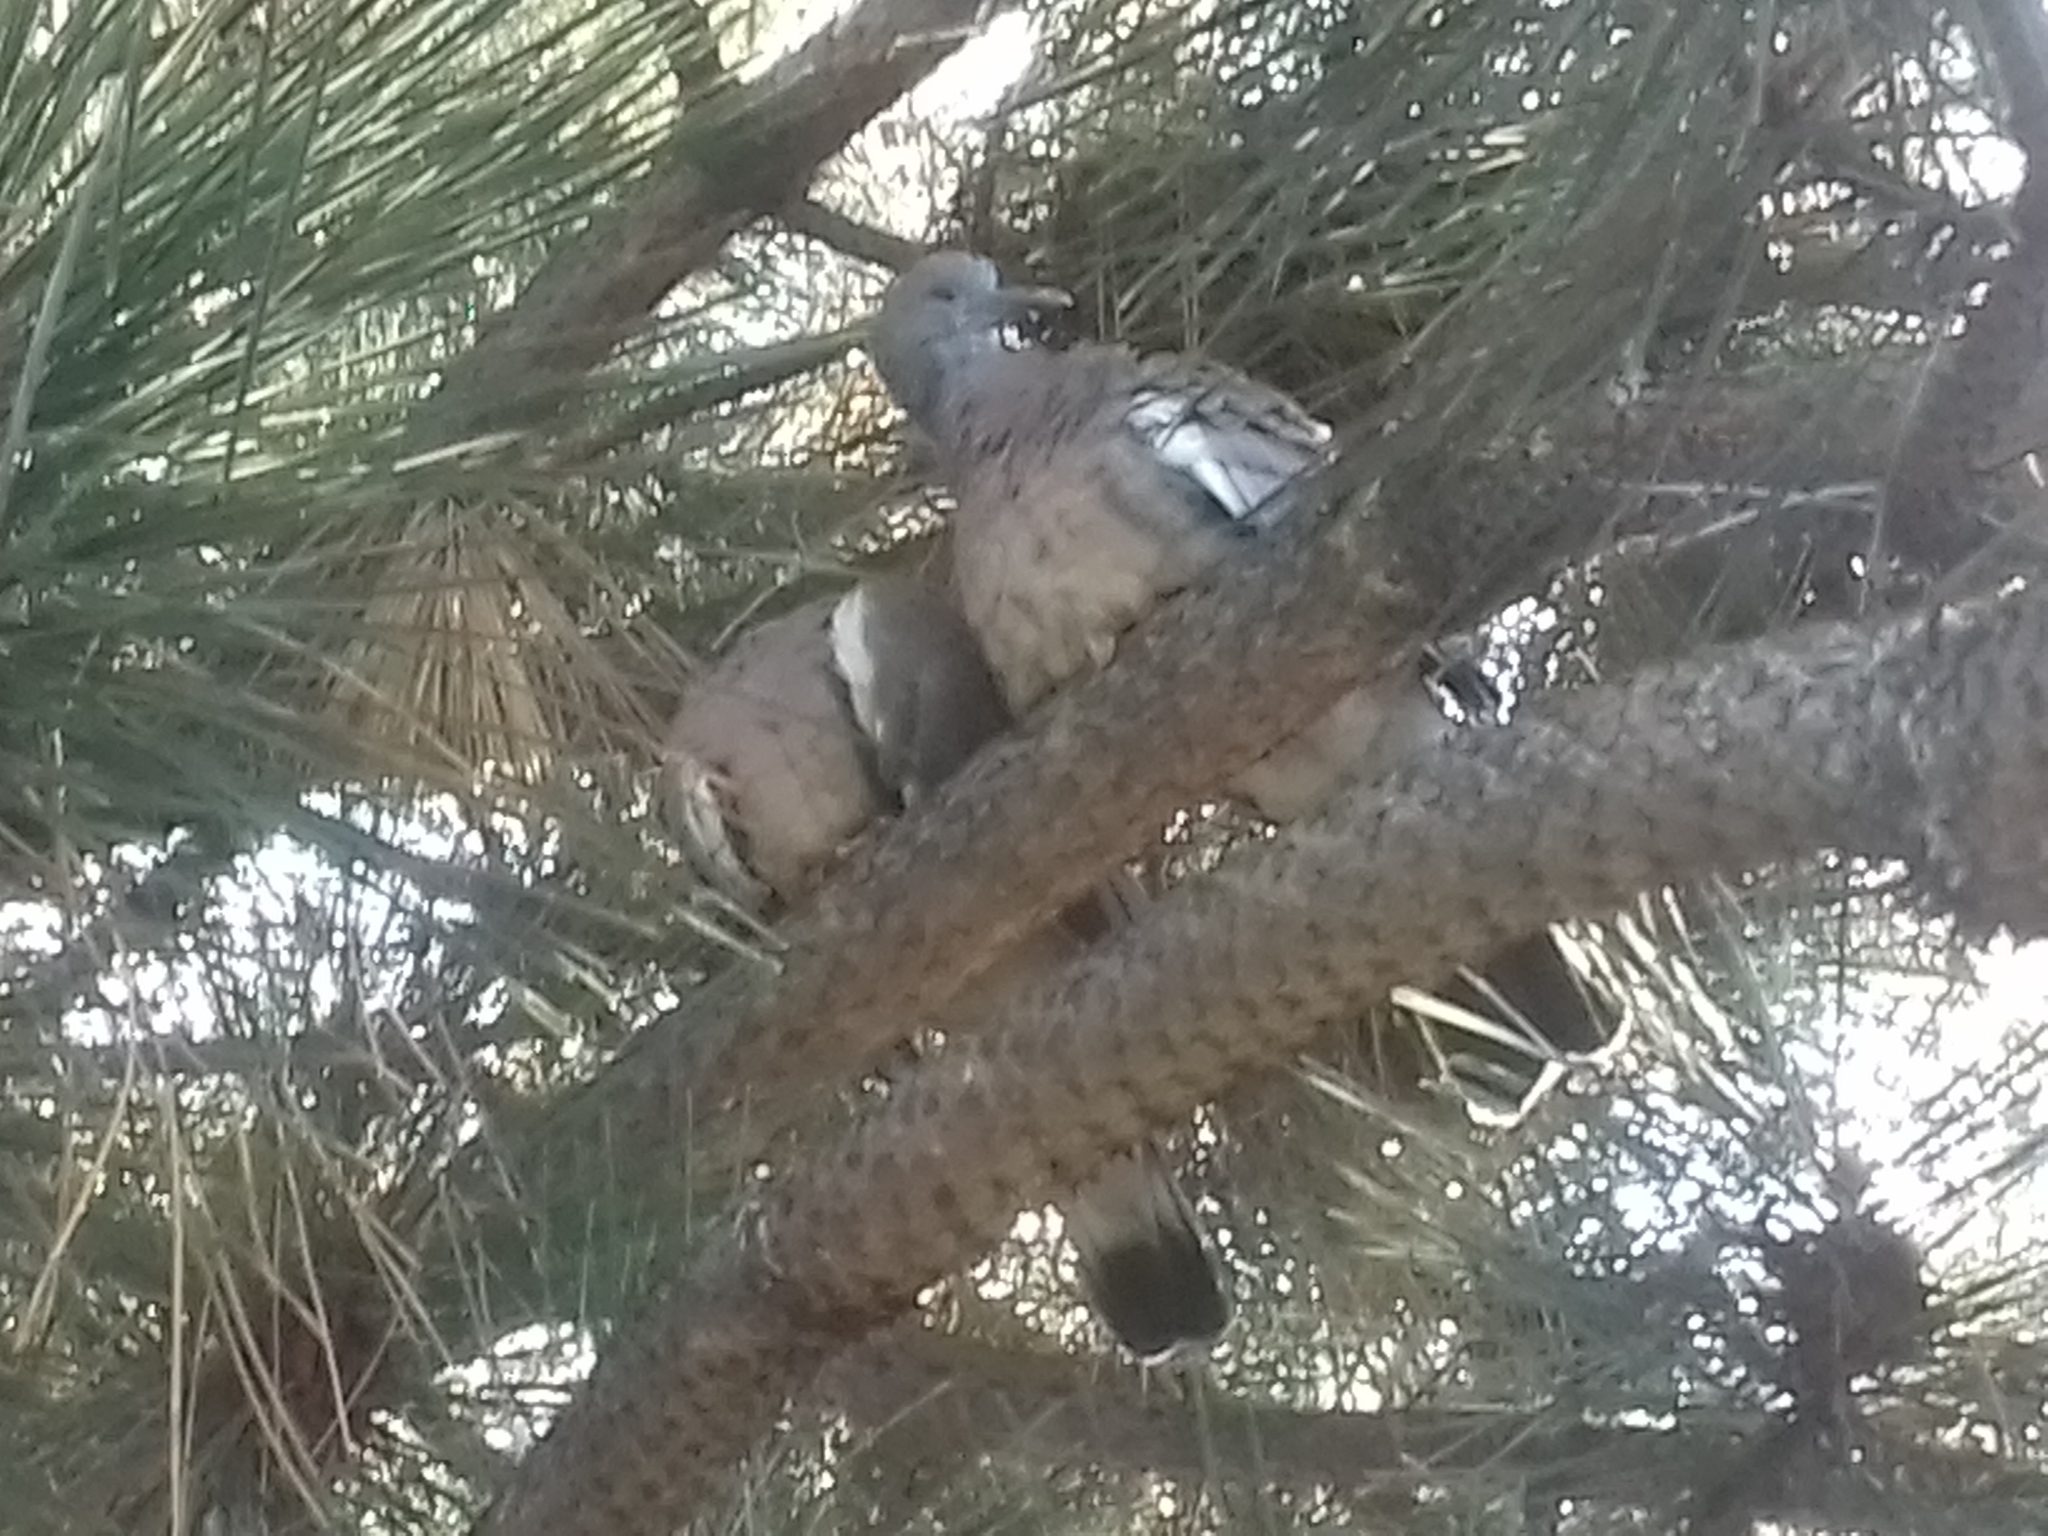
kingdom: Animalia
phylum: Chordata
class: Aves
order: Columbiformes
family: Columbidae
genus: Columba
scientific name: Columba palumbus
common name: Common wood pigeon
